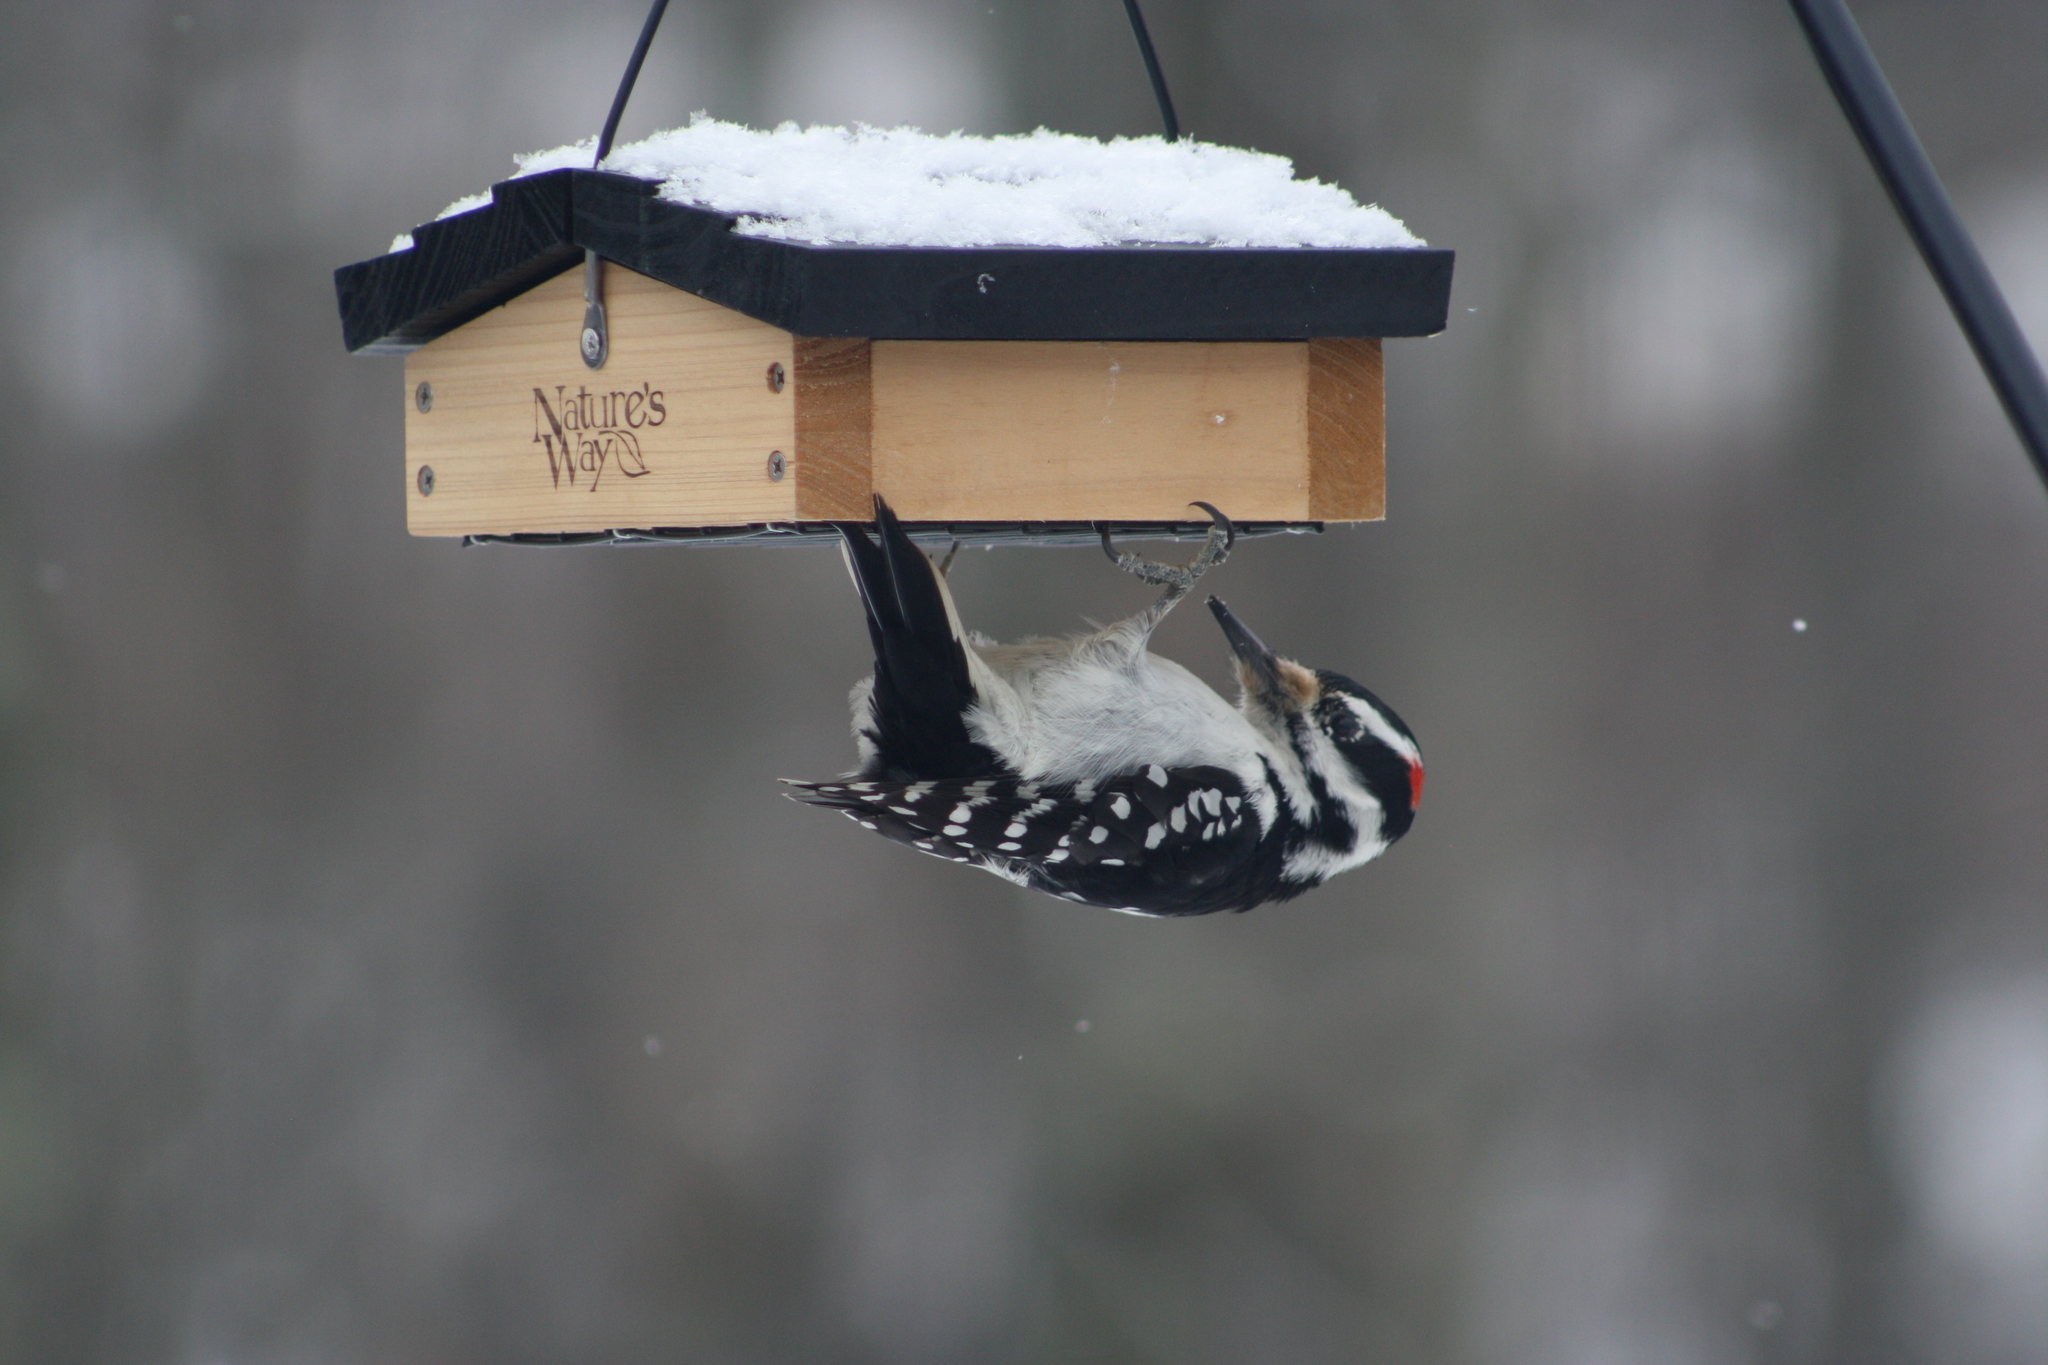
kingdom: Animalia
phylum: Chordata
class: Aves
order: Piciformes
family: Picidae
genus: Leuconotopicus
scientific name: Leuconotopicus villosus
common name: Hairy woodpecker
